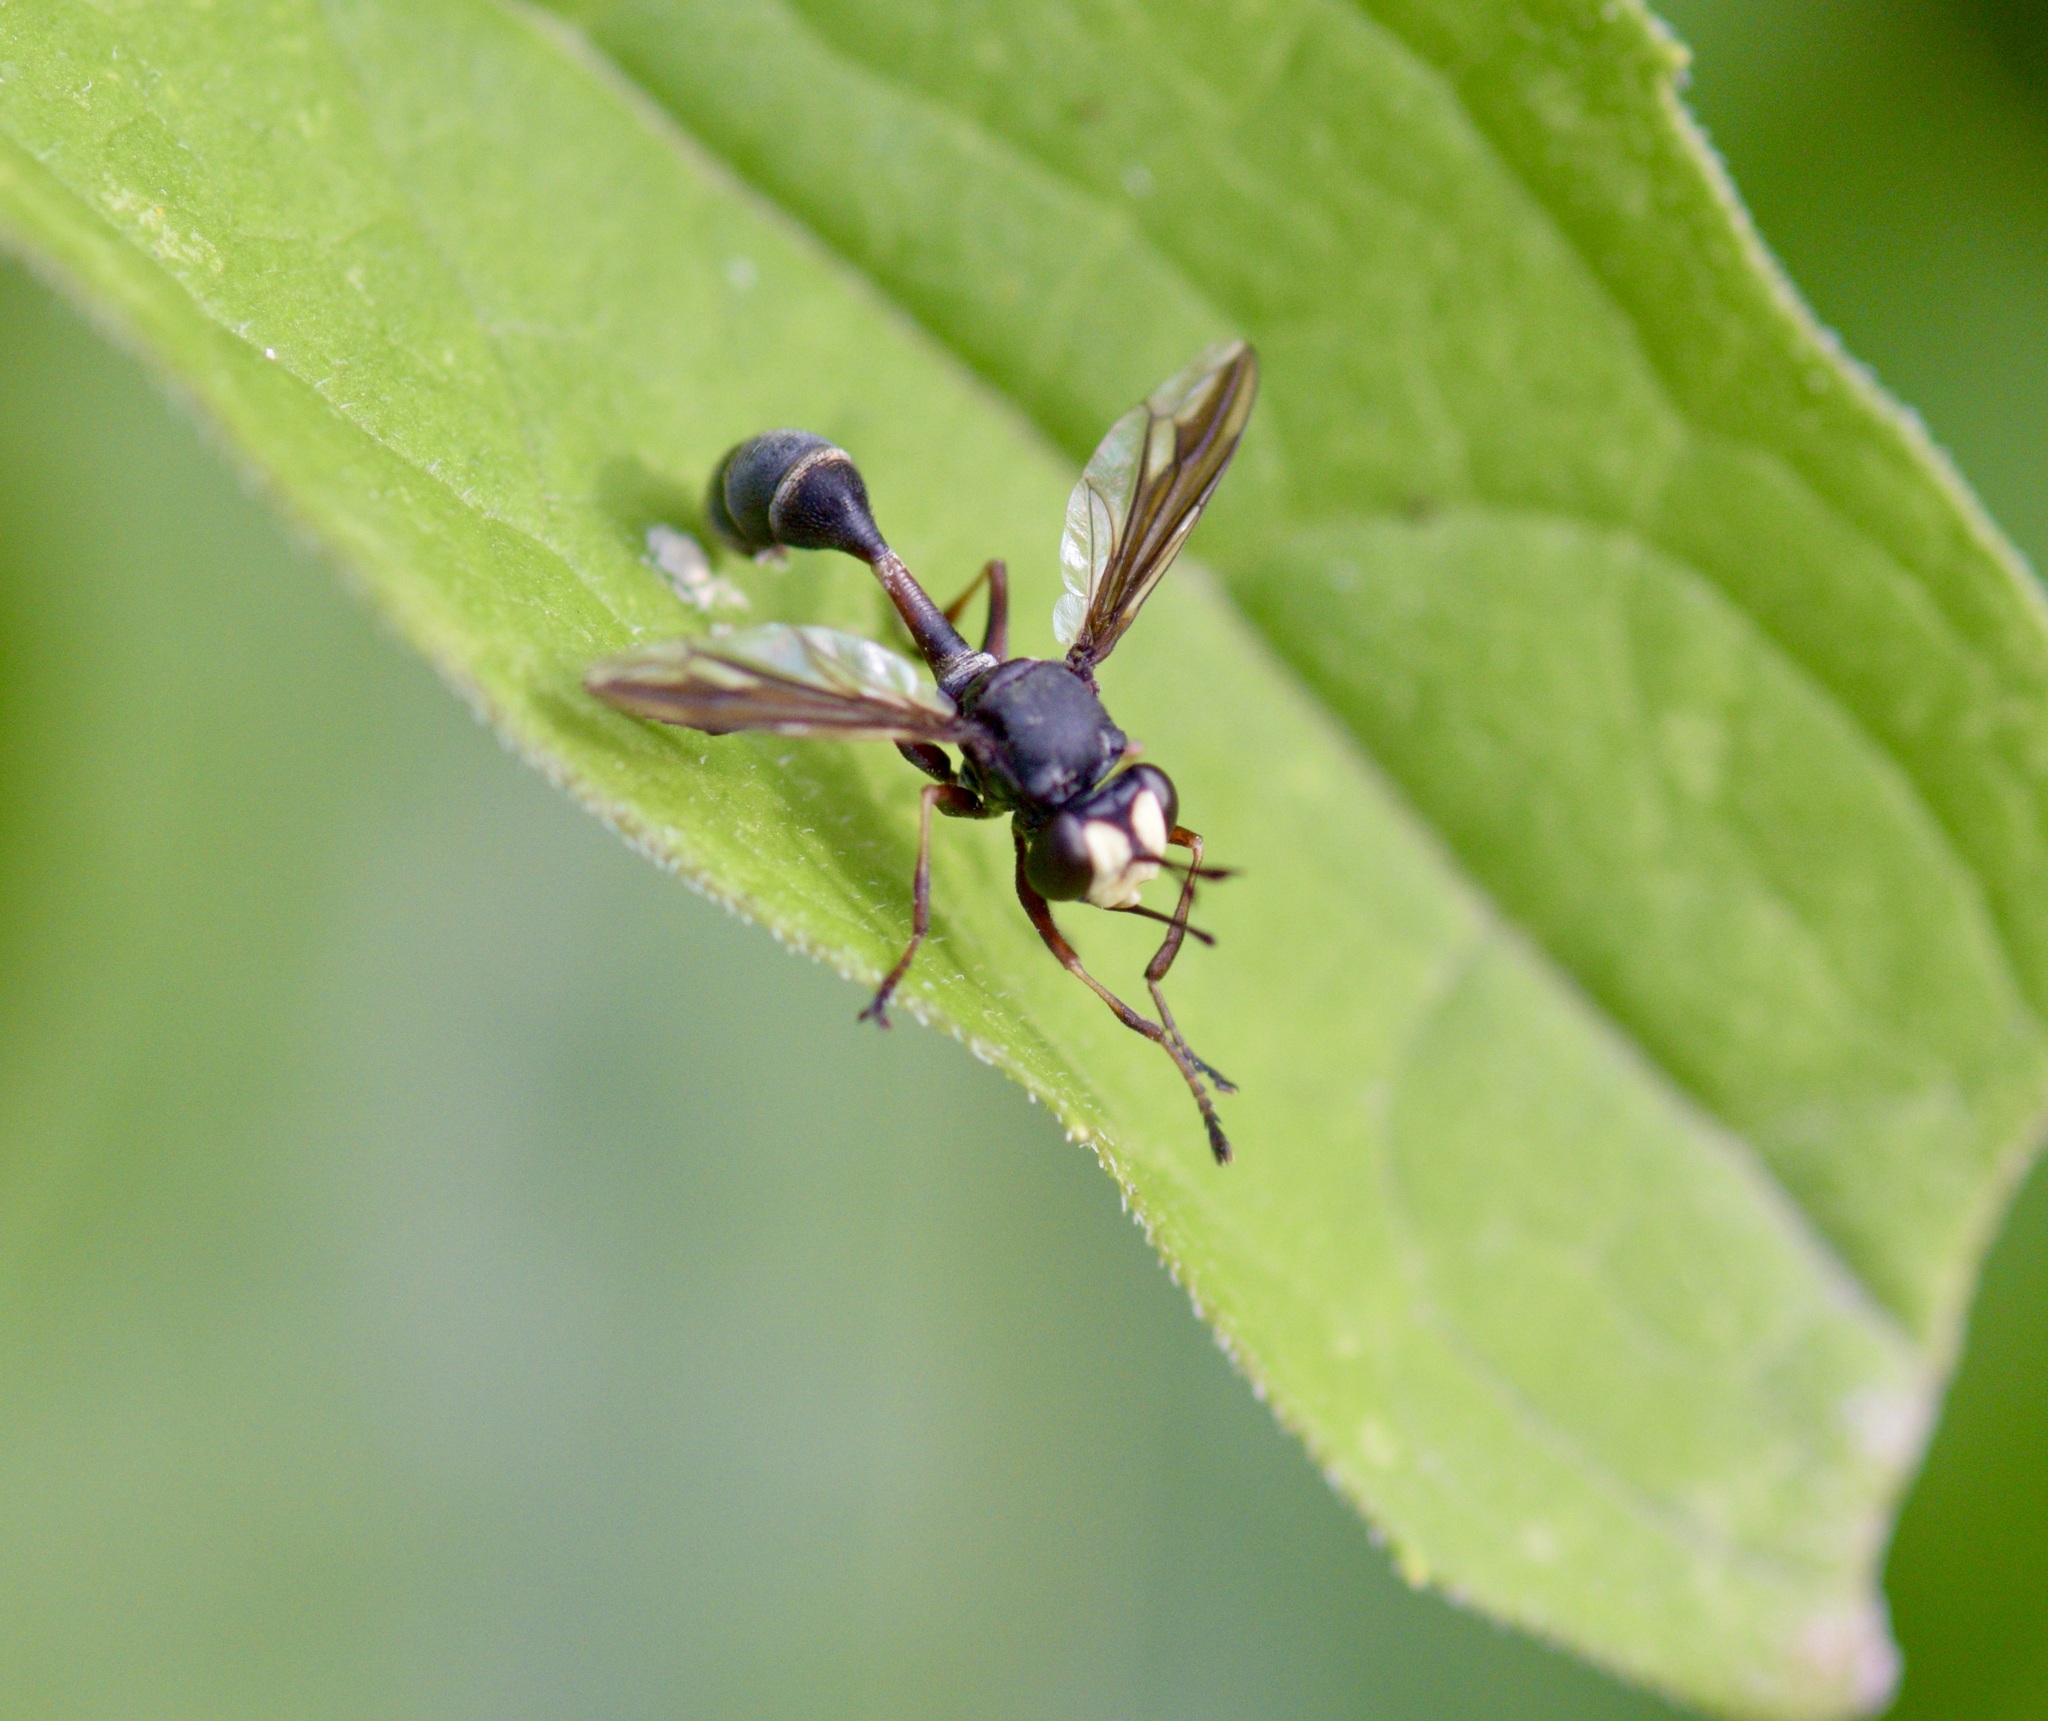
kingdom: Animalia
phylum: Arthropoda
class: Insecta
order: Diptera
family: Conopidae
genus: Physocephala
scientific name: Physocephala furcillata
